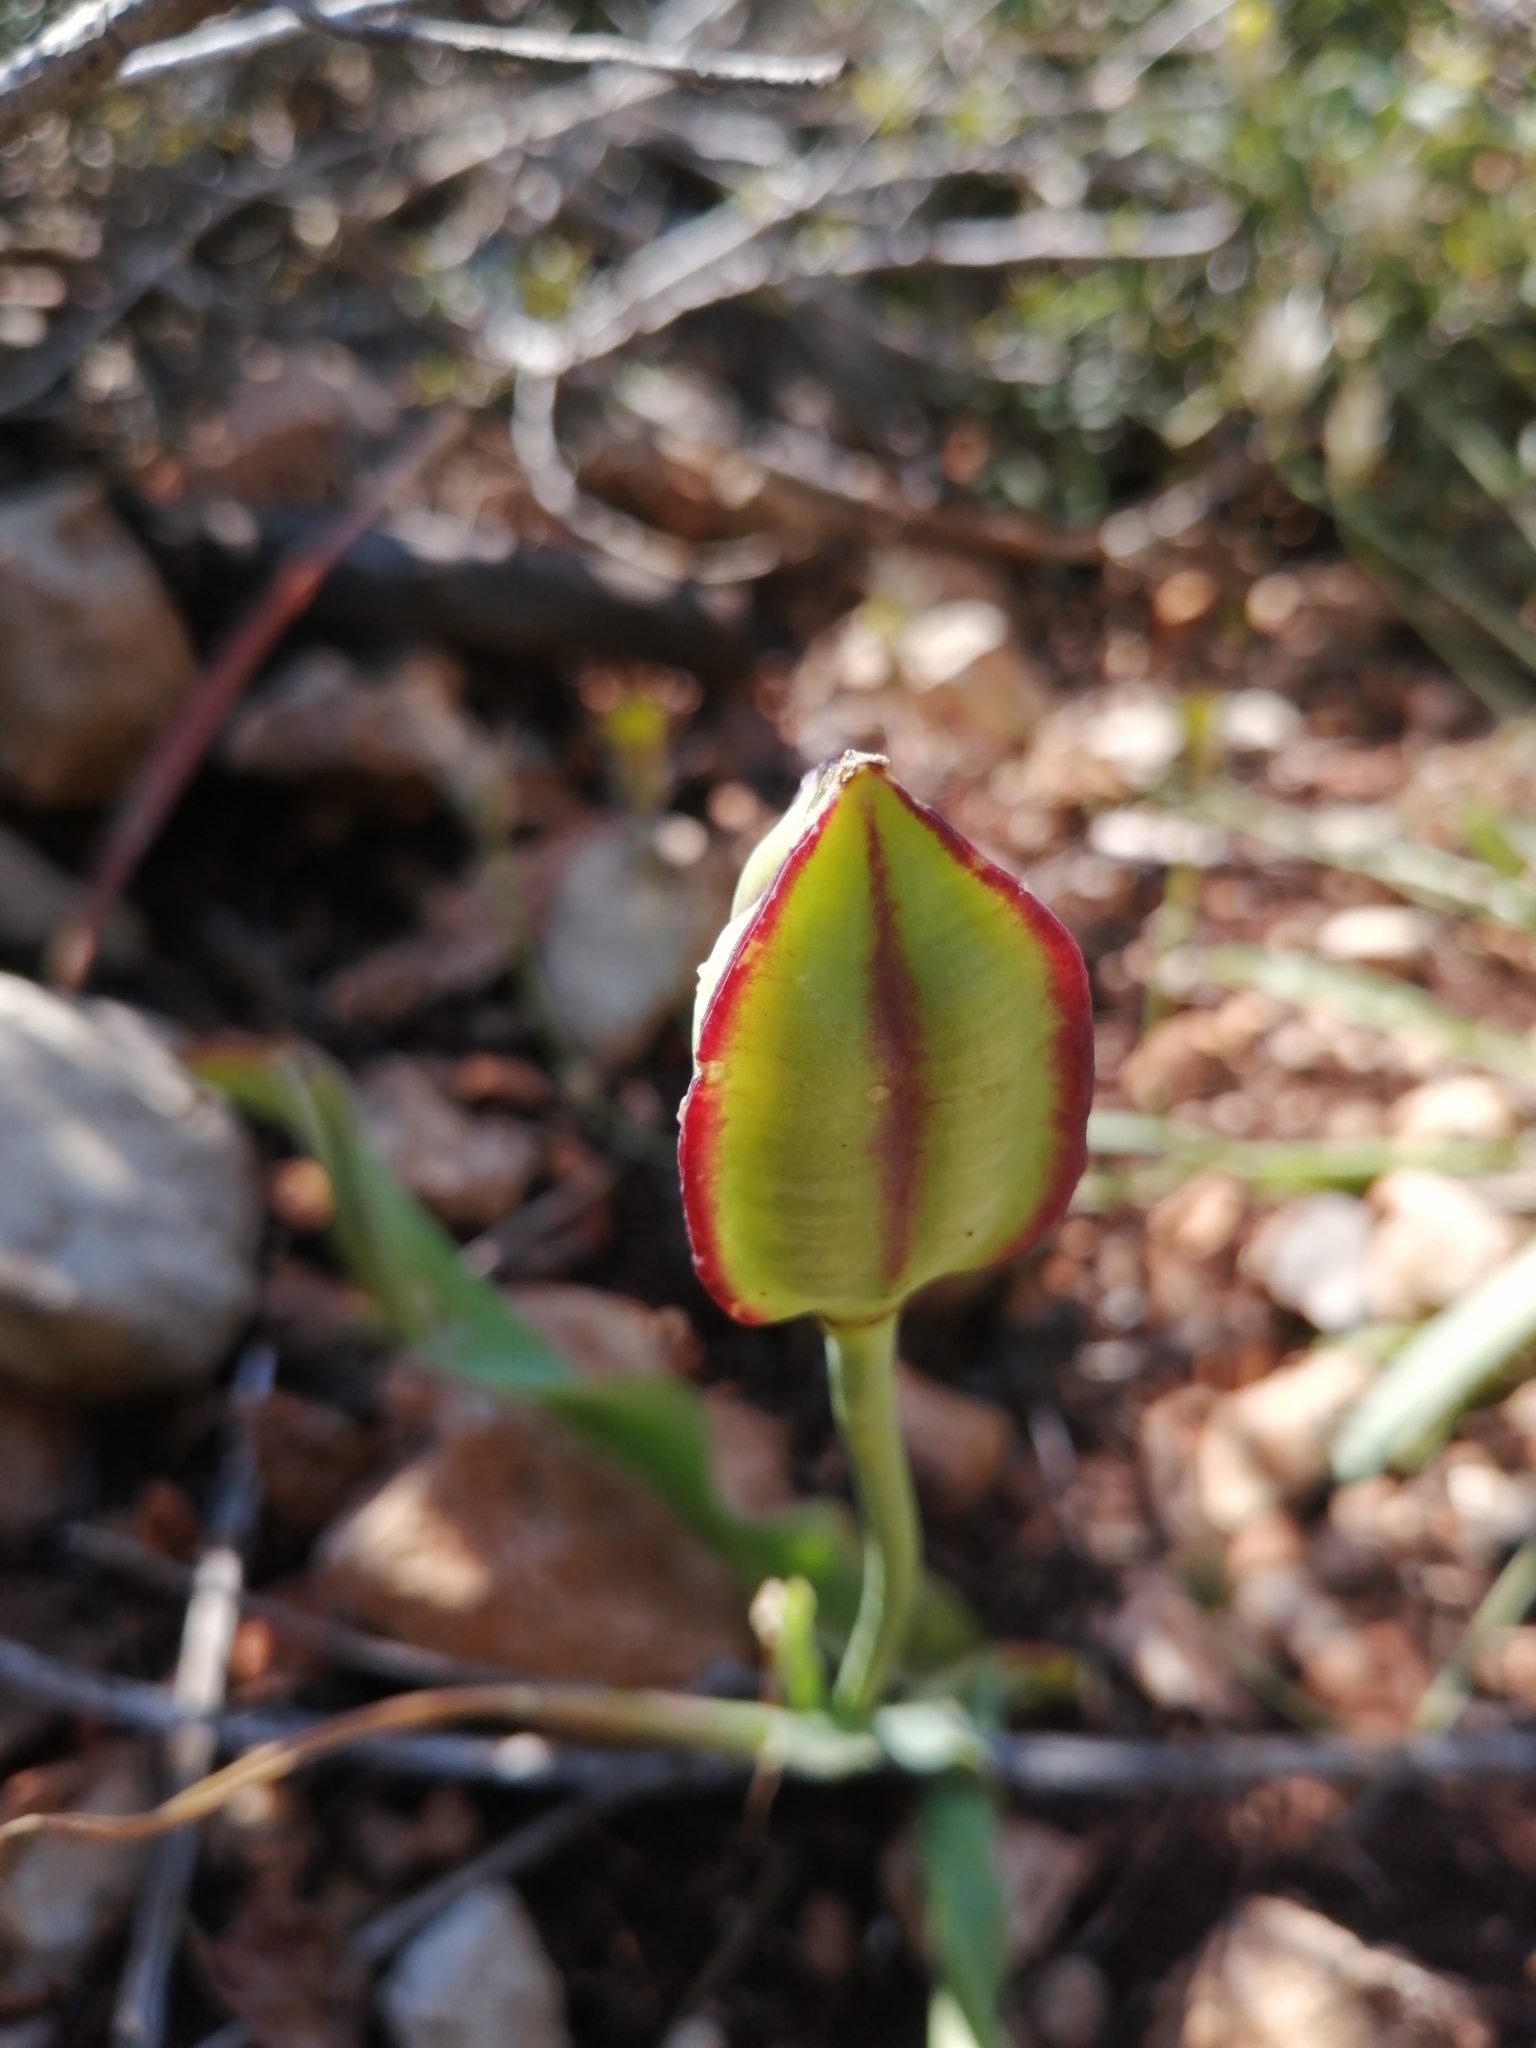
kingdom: Plantae
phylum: Tracheophyta
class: Liliopsida
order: Liliales
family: Liliaceae
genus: Tulipa
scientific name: Tulipa agenensis
